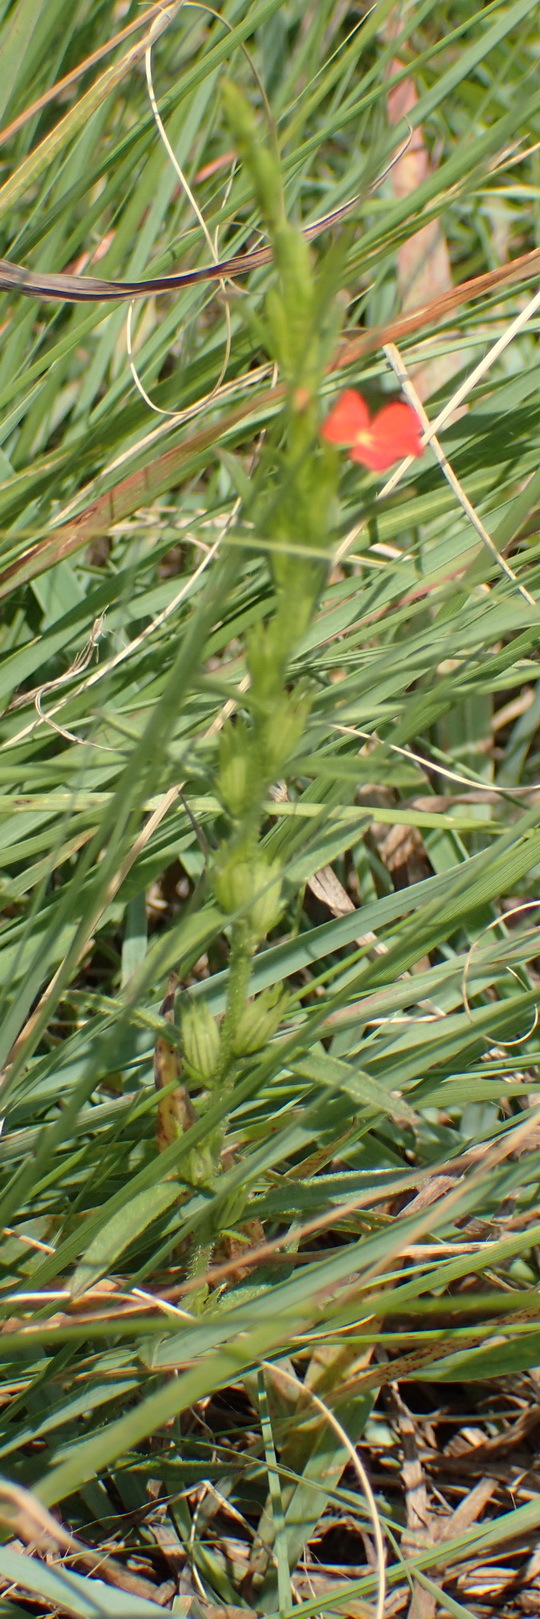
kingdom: Plantae
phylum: Tracheophyta
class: Magnoliopsida
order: Lamiales
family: Orobanchaceae
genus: Striga
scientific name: Striga elegans
